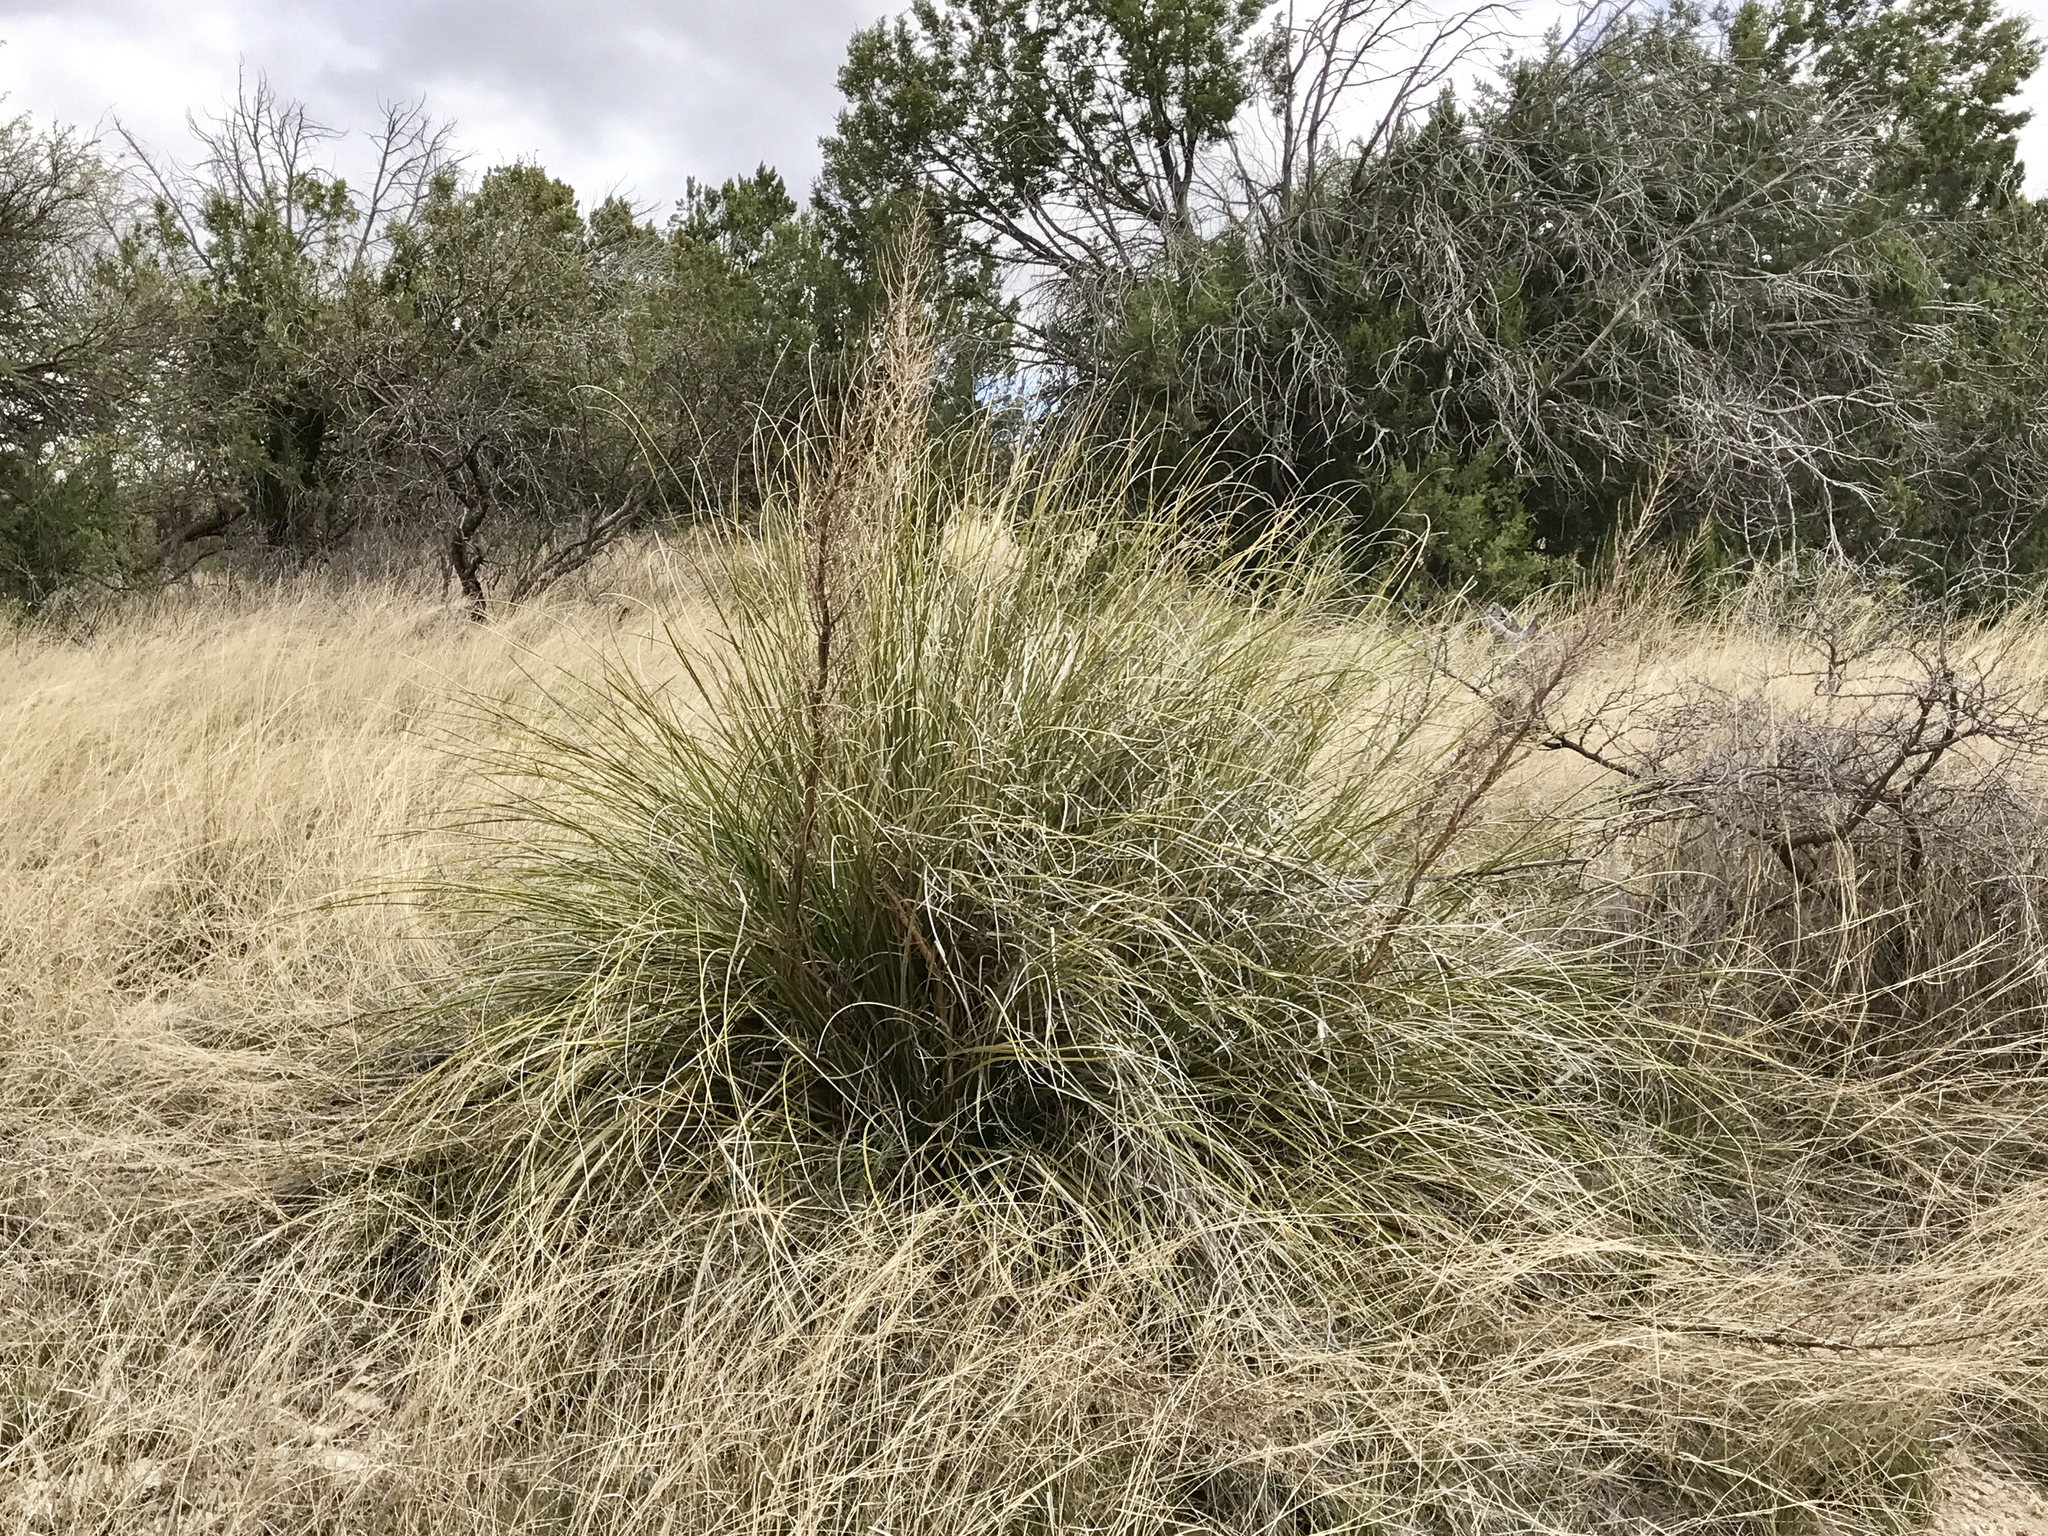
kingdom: Plantae
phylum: Tracheophyta
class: Liliopsida
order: Asparagales
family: Asparagaceae
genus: Nolina
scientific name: Nolina microcarpa
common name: Bear-grass
